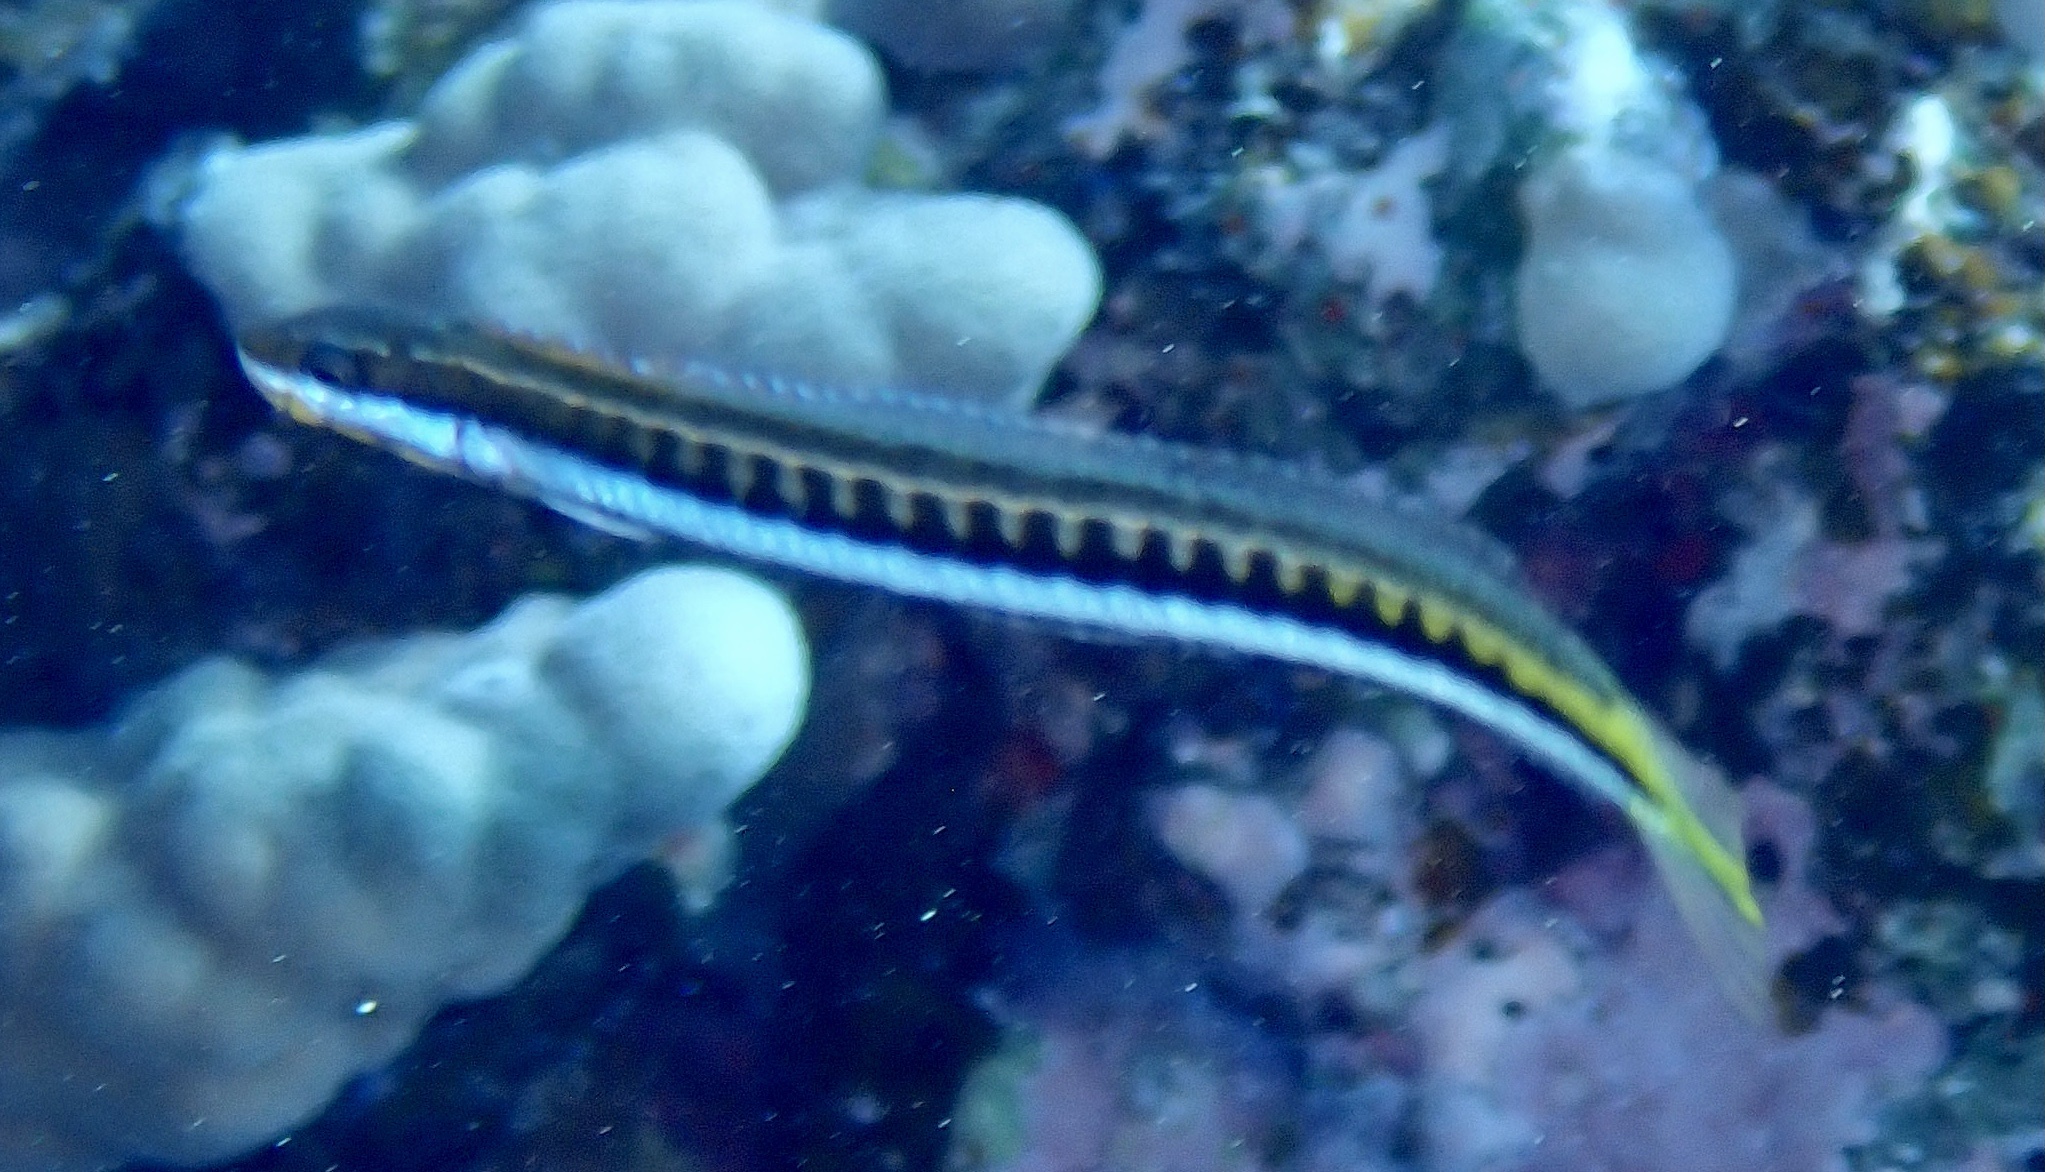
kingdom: Animalia
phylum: Chordata
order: Perciformes
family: Blenniidae
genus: Plagiotremus
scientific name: Plagiotremus tapeinosoma
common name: Hit and run blenny
